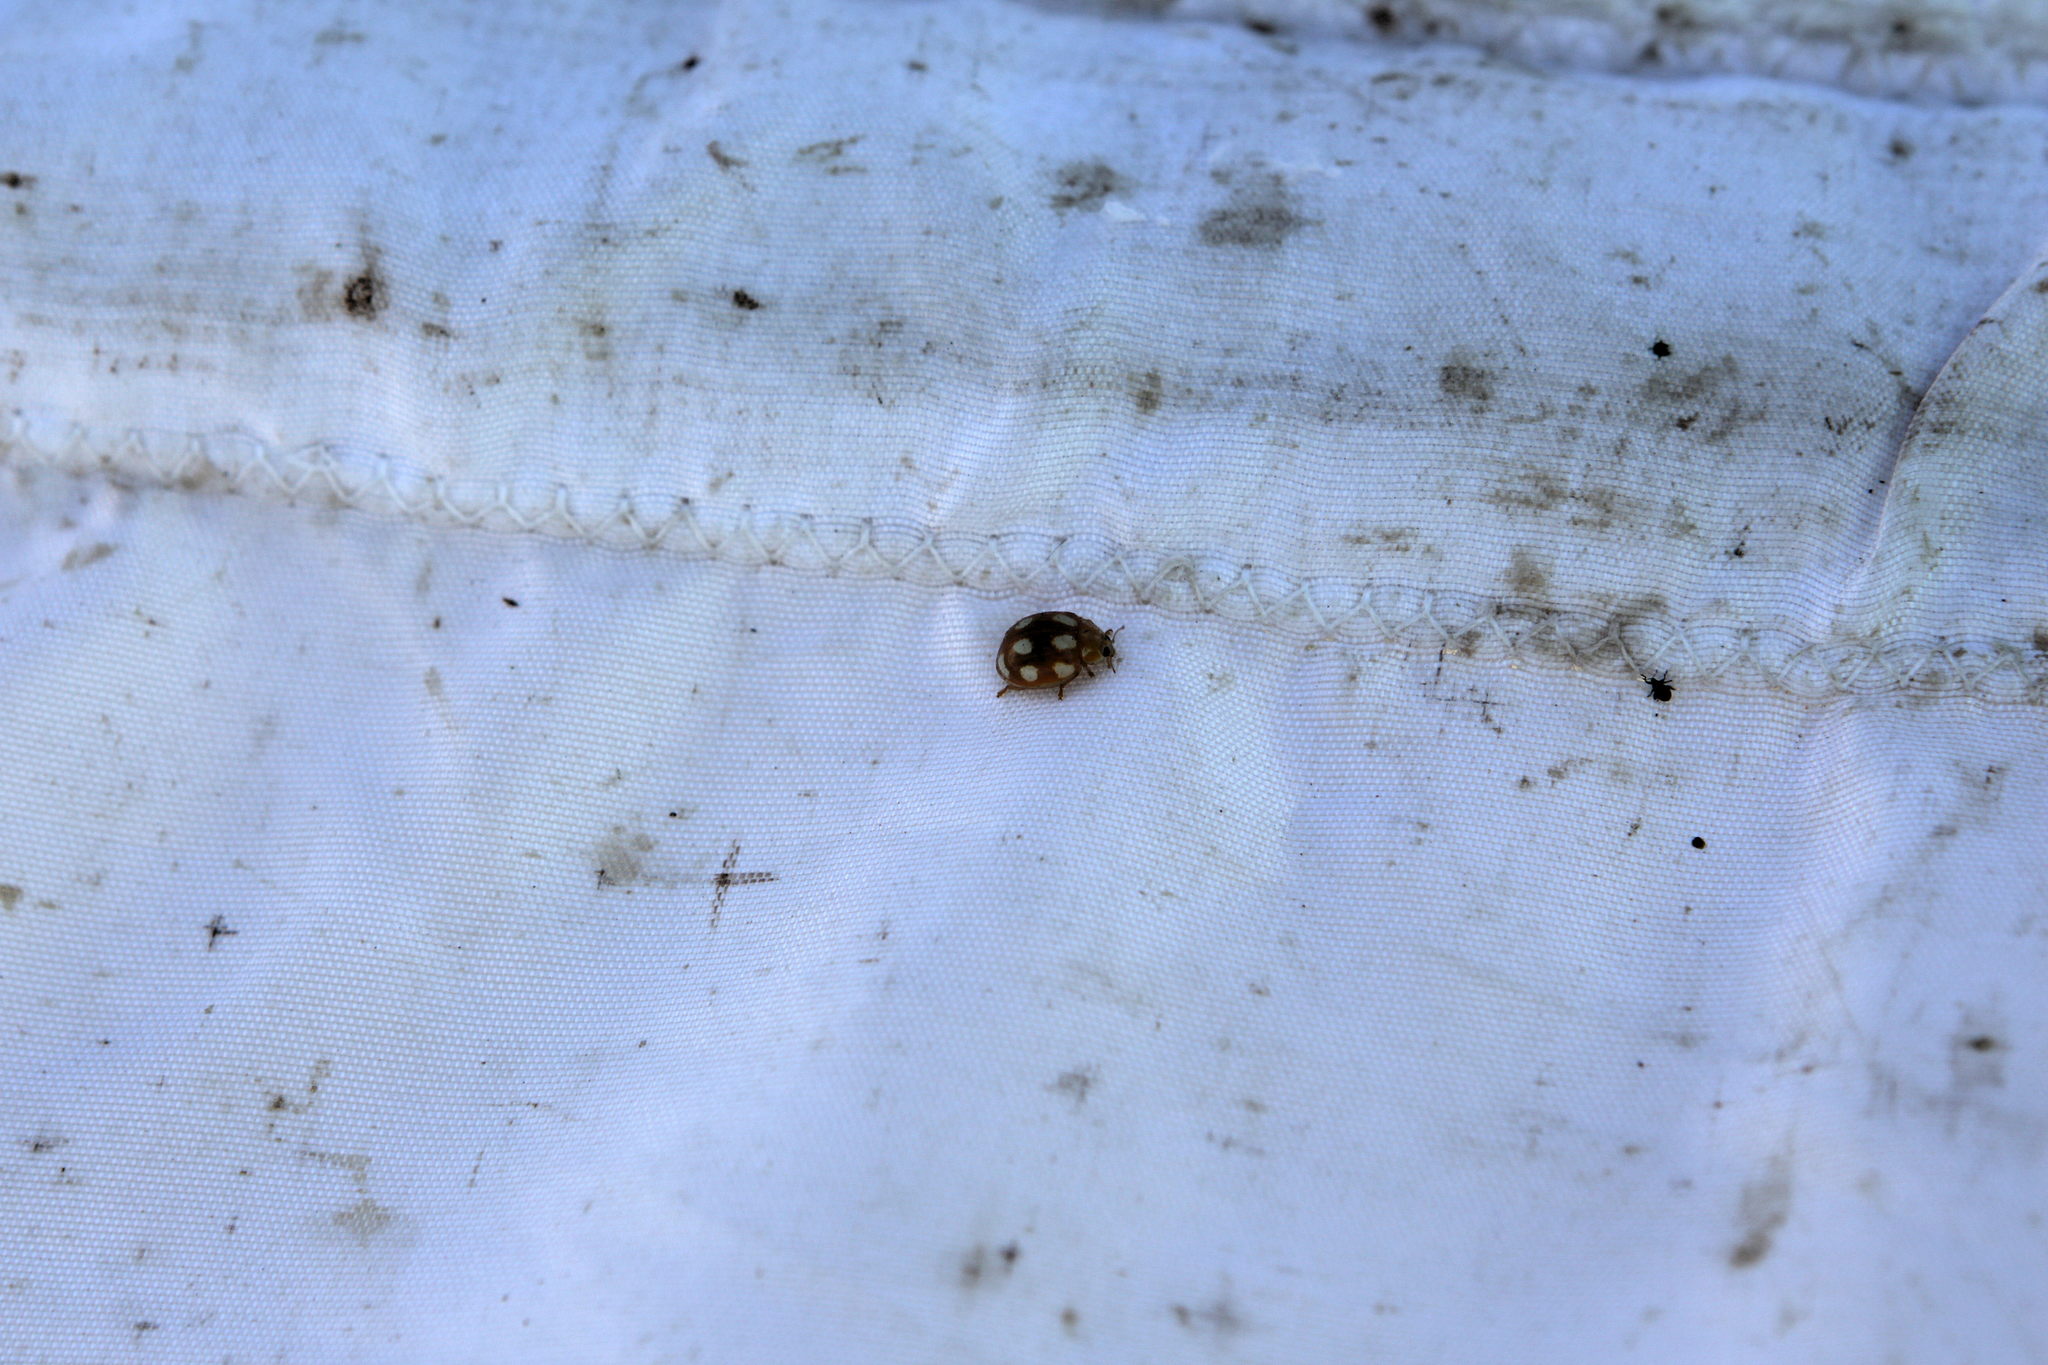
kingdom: Animalia
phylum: Arthropoda
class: Insecta
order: Coleoptera
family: Coccinellidae
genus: Calvia
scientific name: Calvia decemguttata
